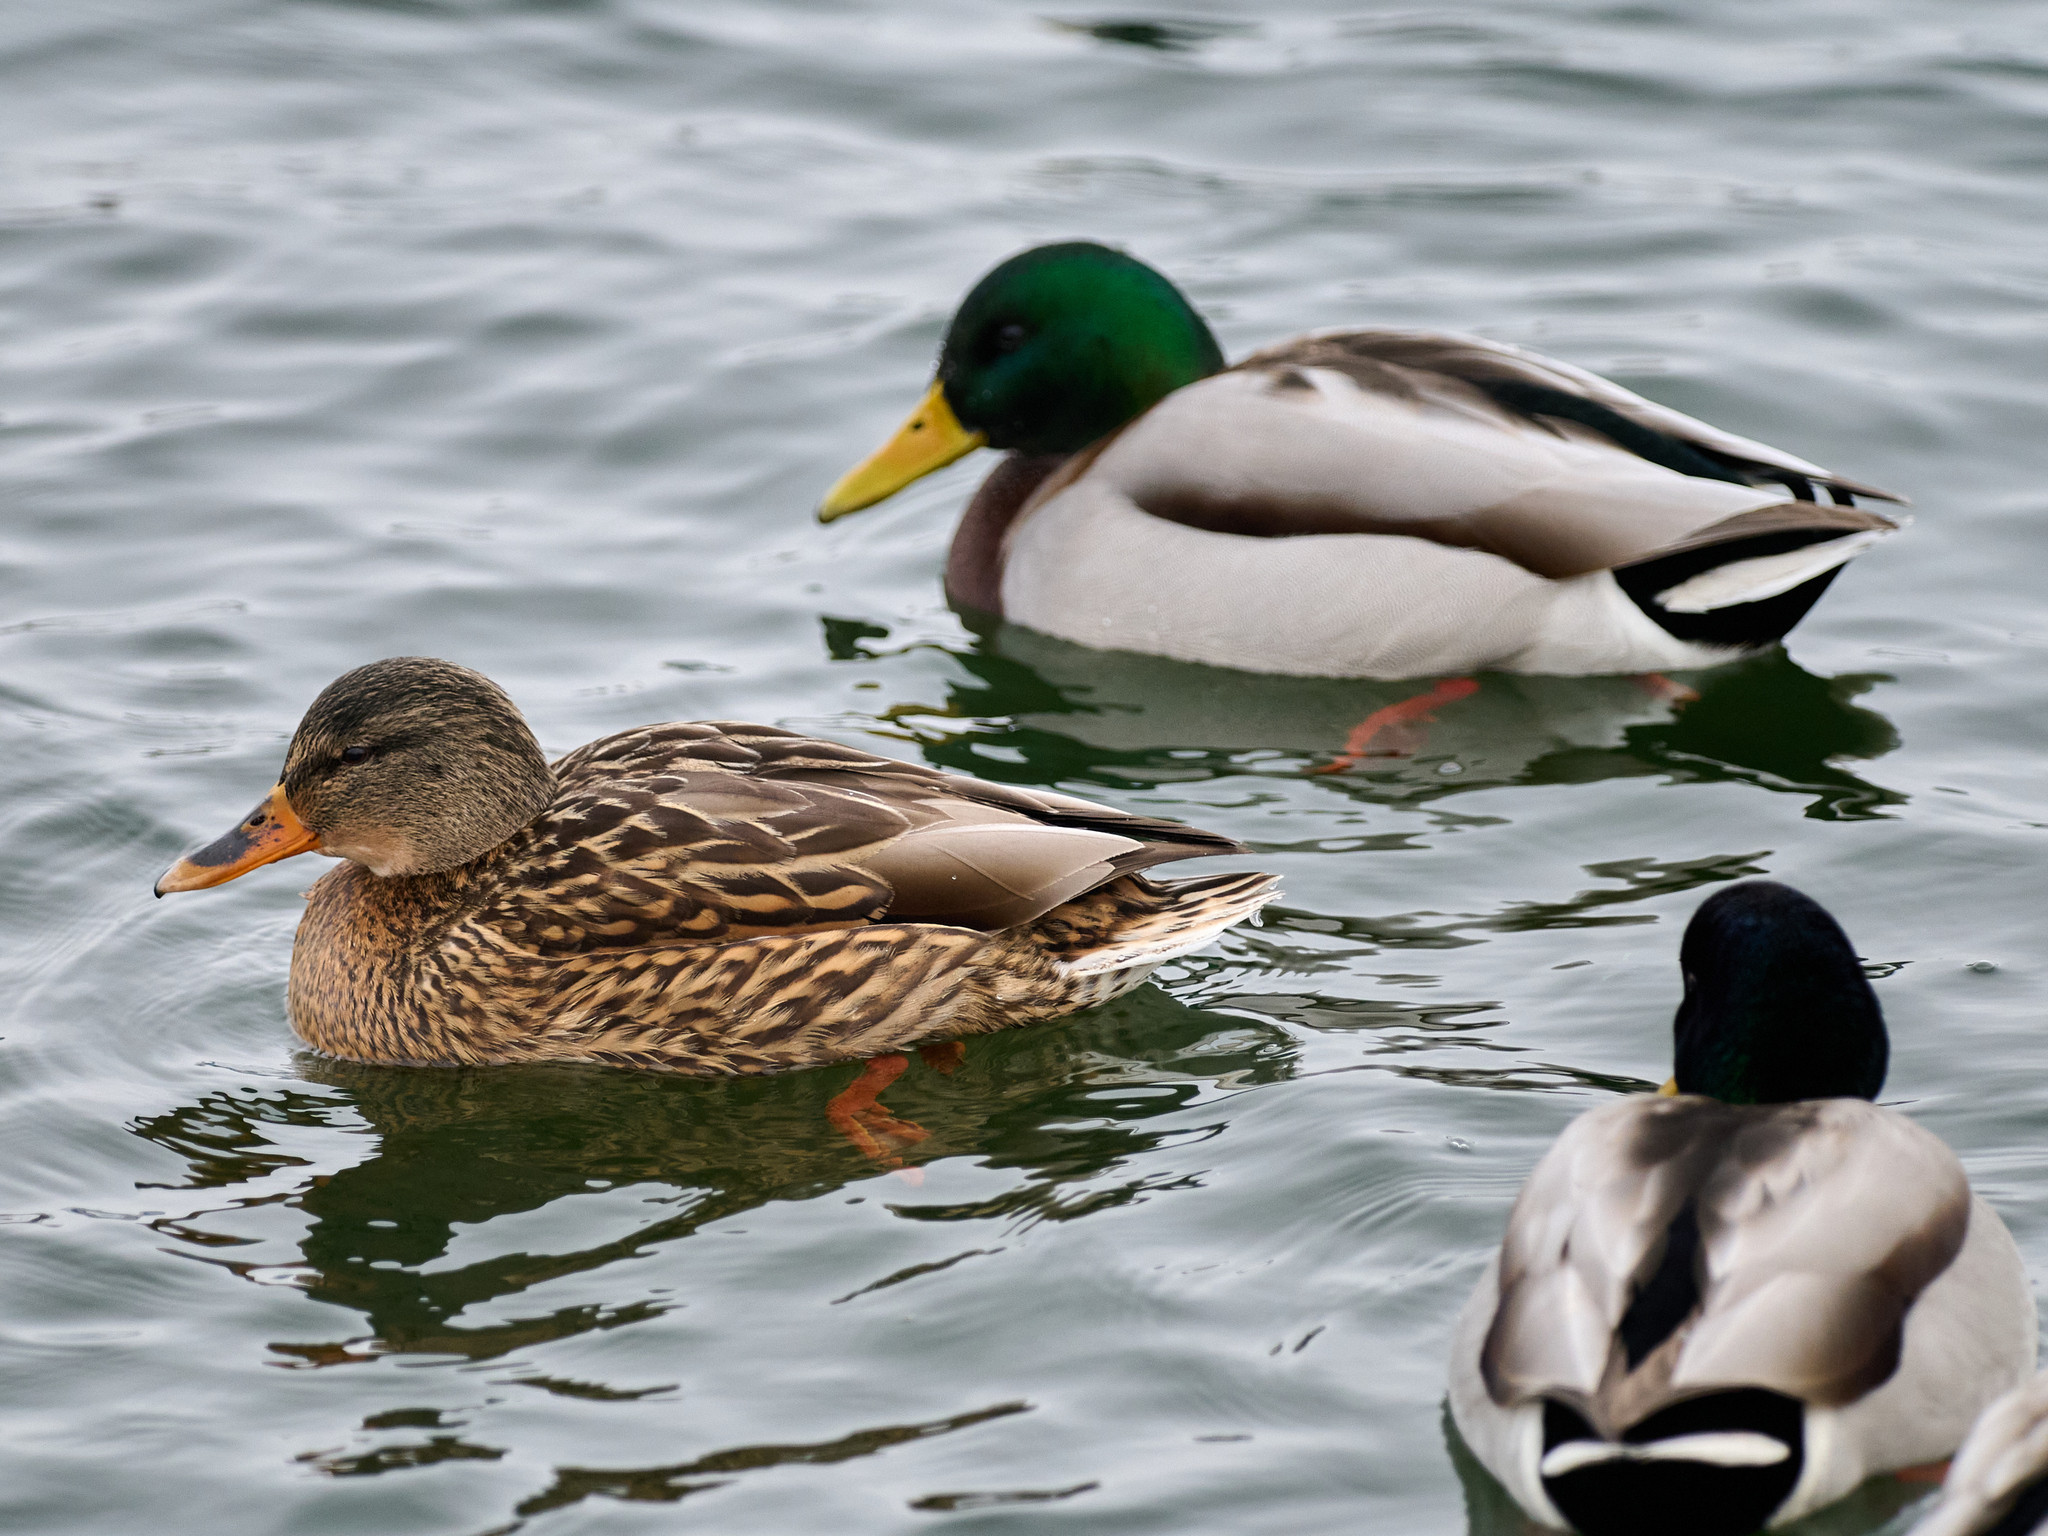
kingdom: Animalia
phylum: Chordata
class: Aves
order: Anseriformes
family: Anatidae
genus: Anas
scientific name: Anas platyrhynchos
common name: Mallard
